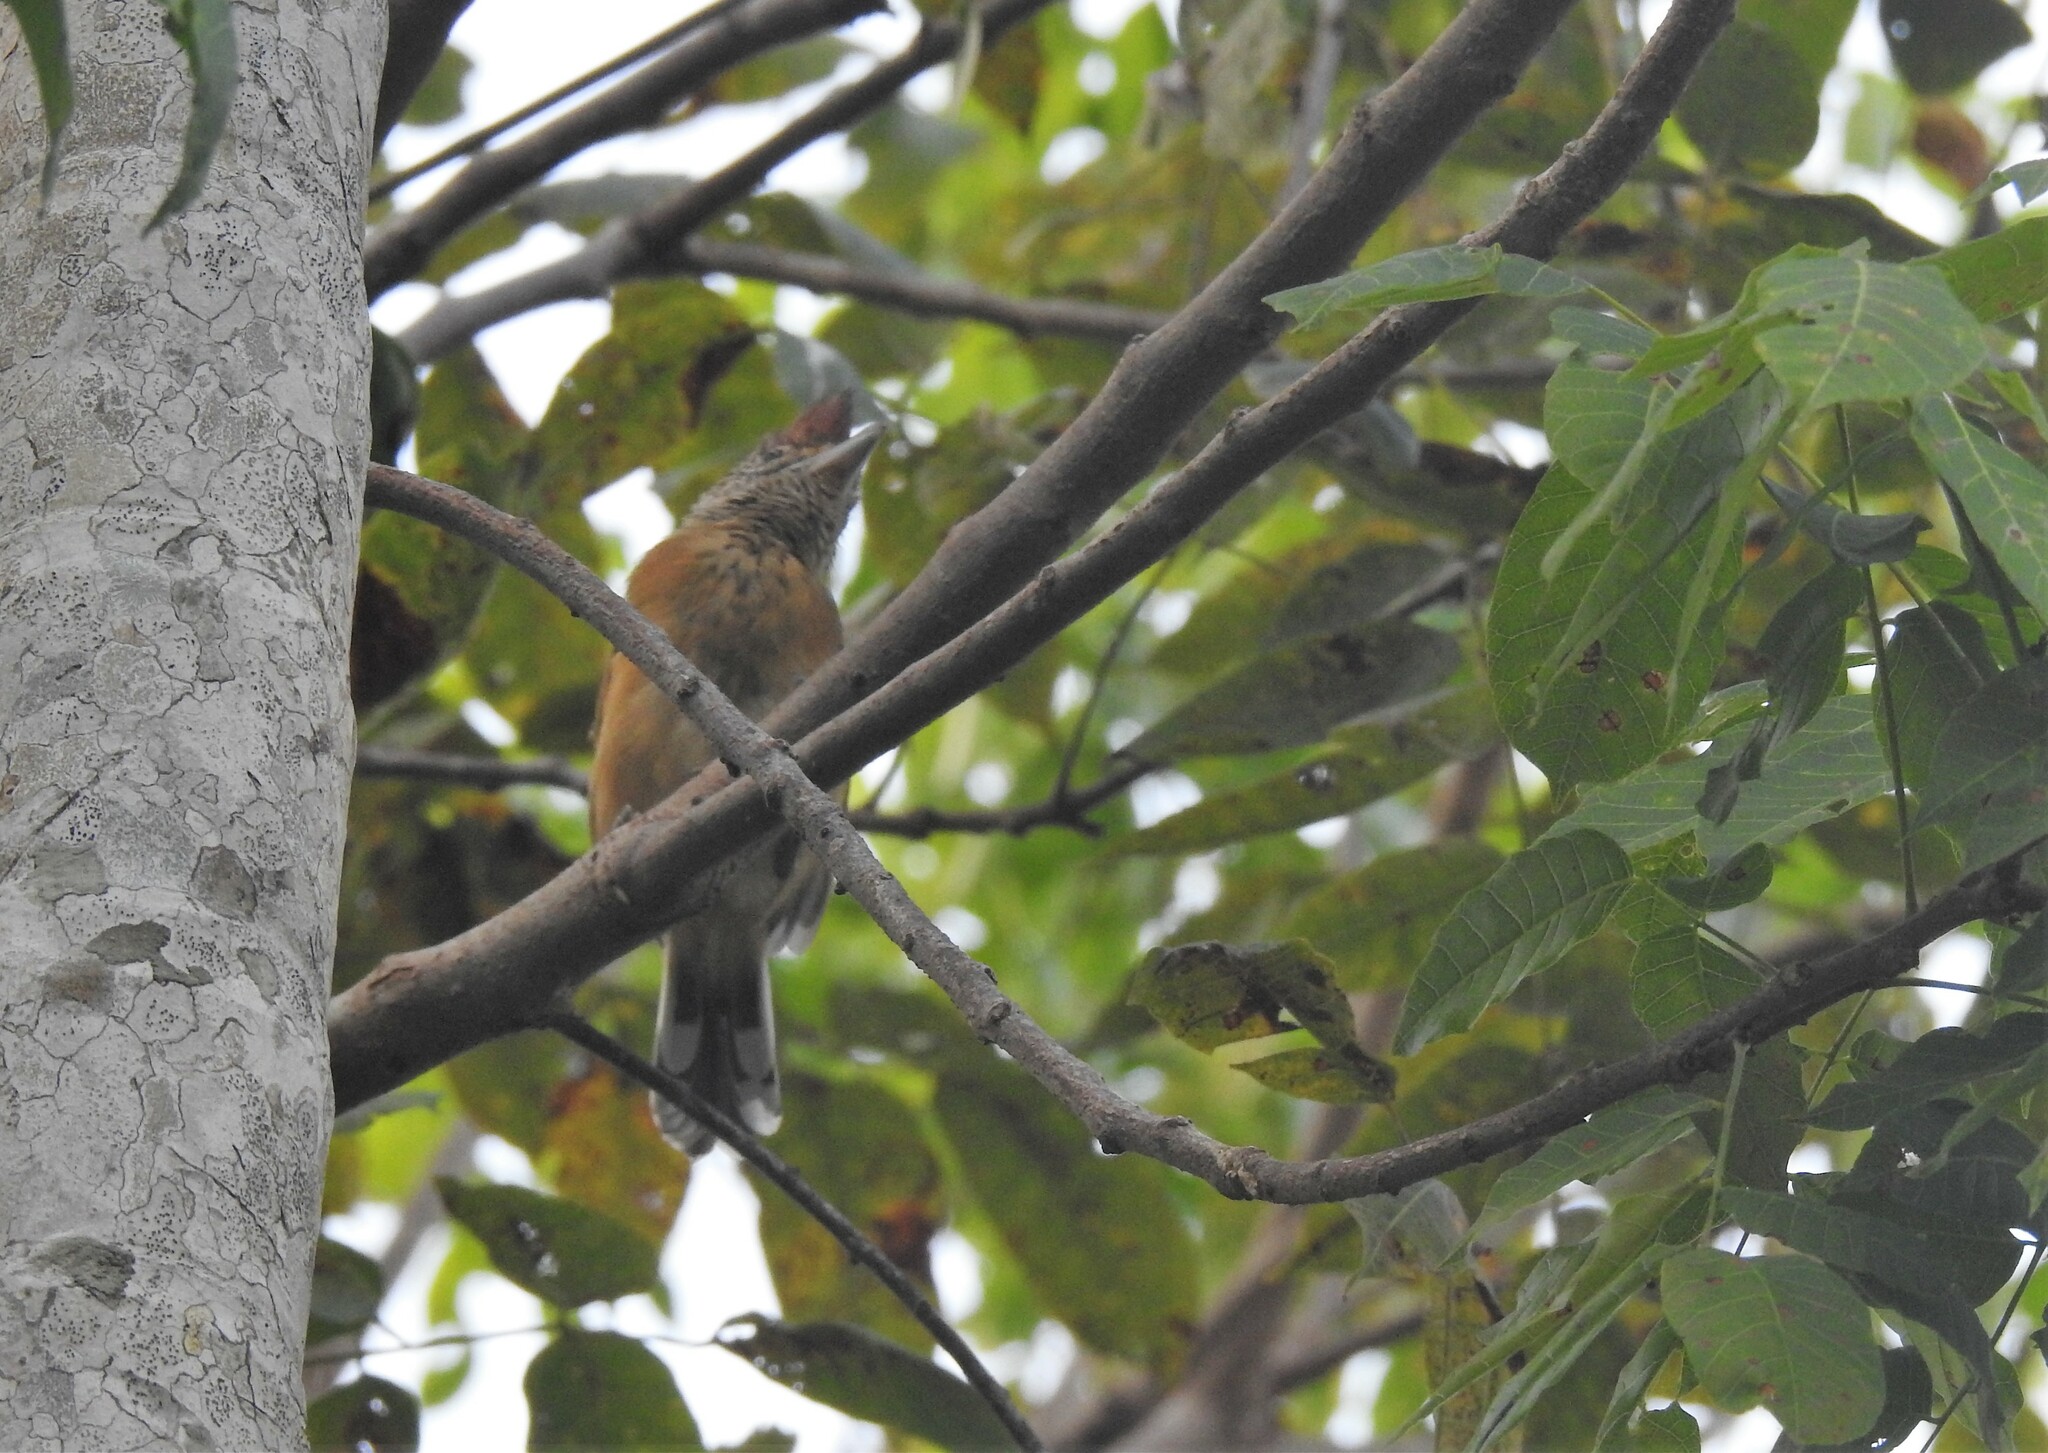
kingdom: Animalia
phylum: Chordata
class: Aves
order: Passeriformes
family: Thamnophilidae
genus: Sakesphorus
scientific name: Sakesphorus canadensis
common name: Black-crested antshrike
